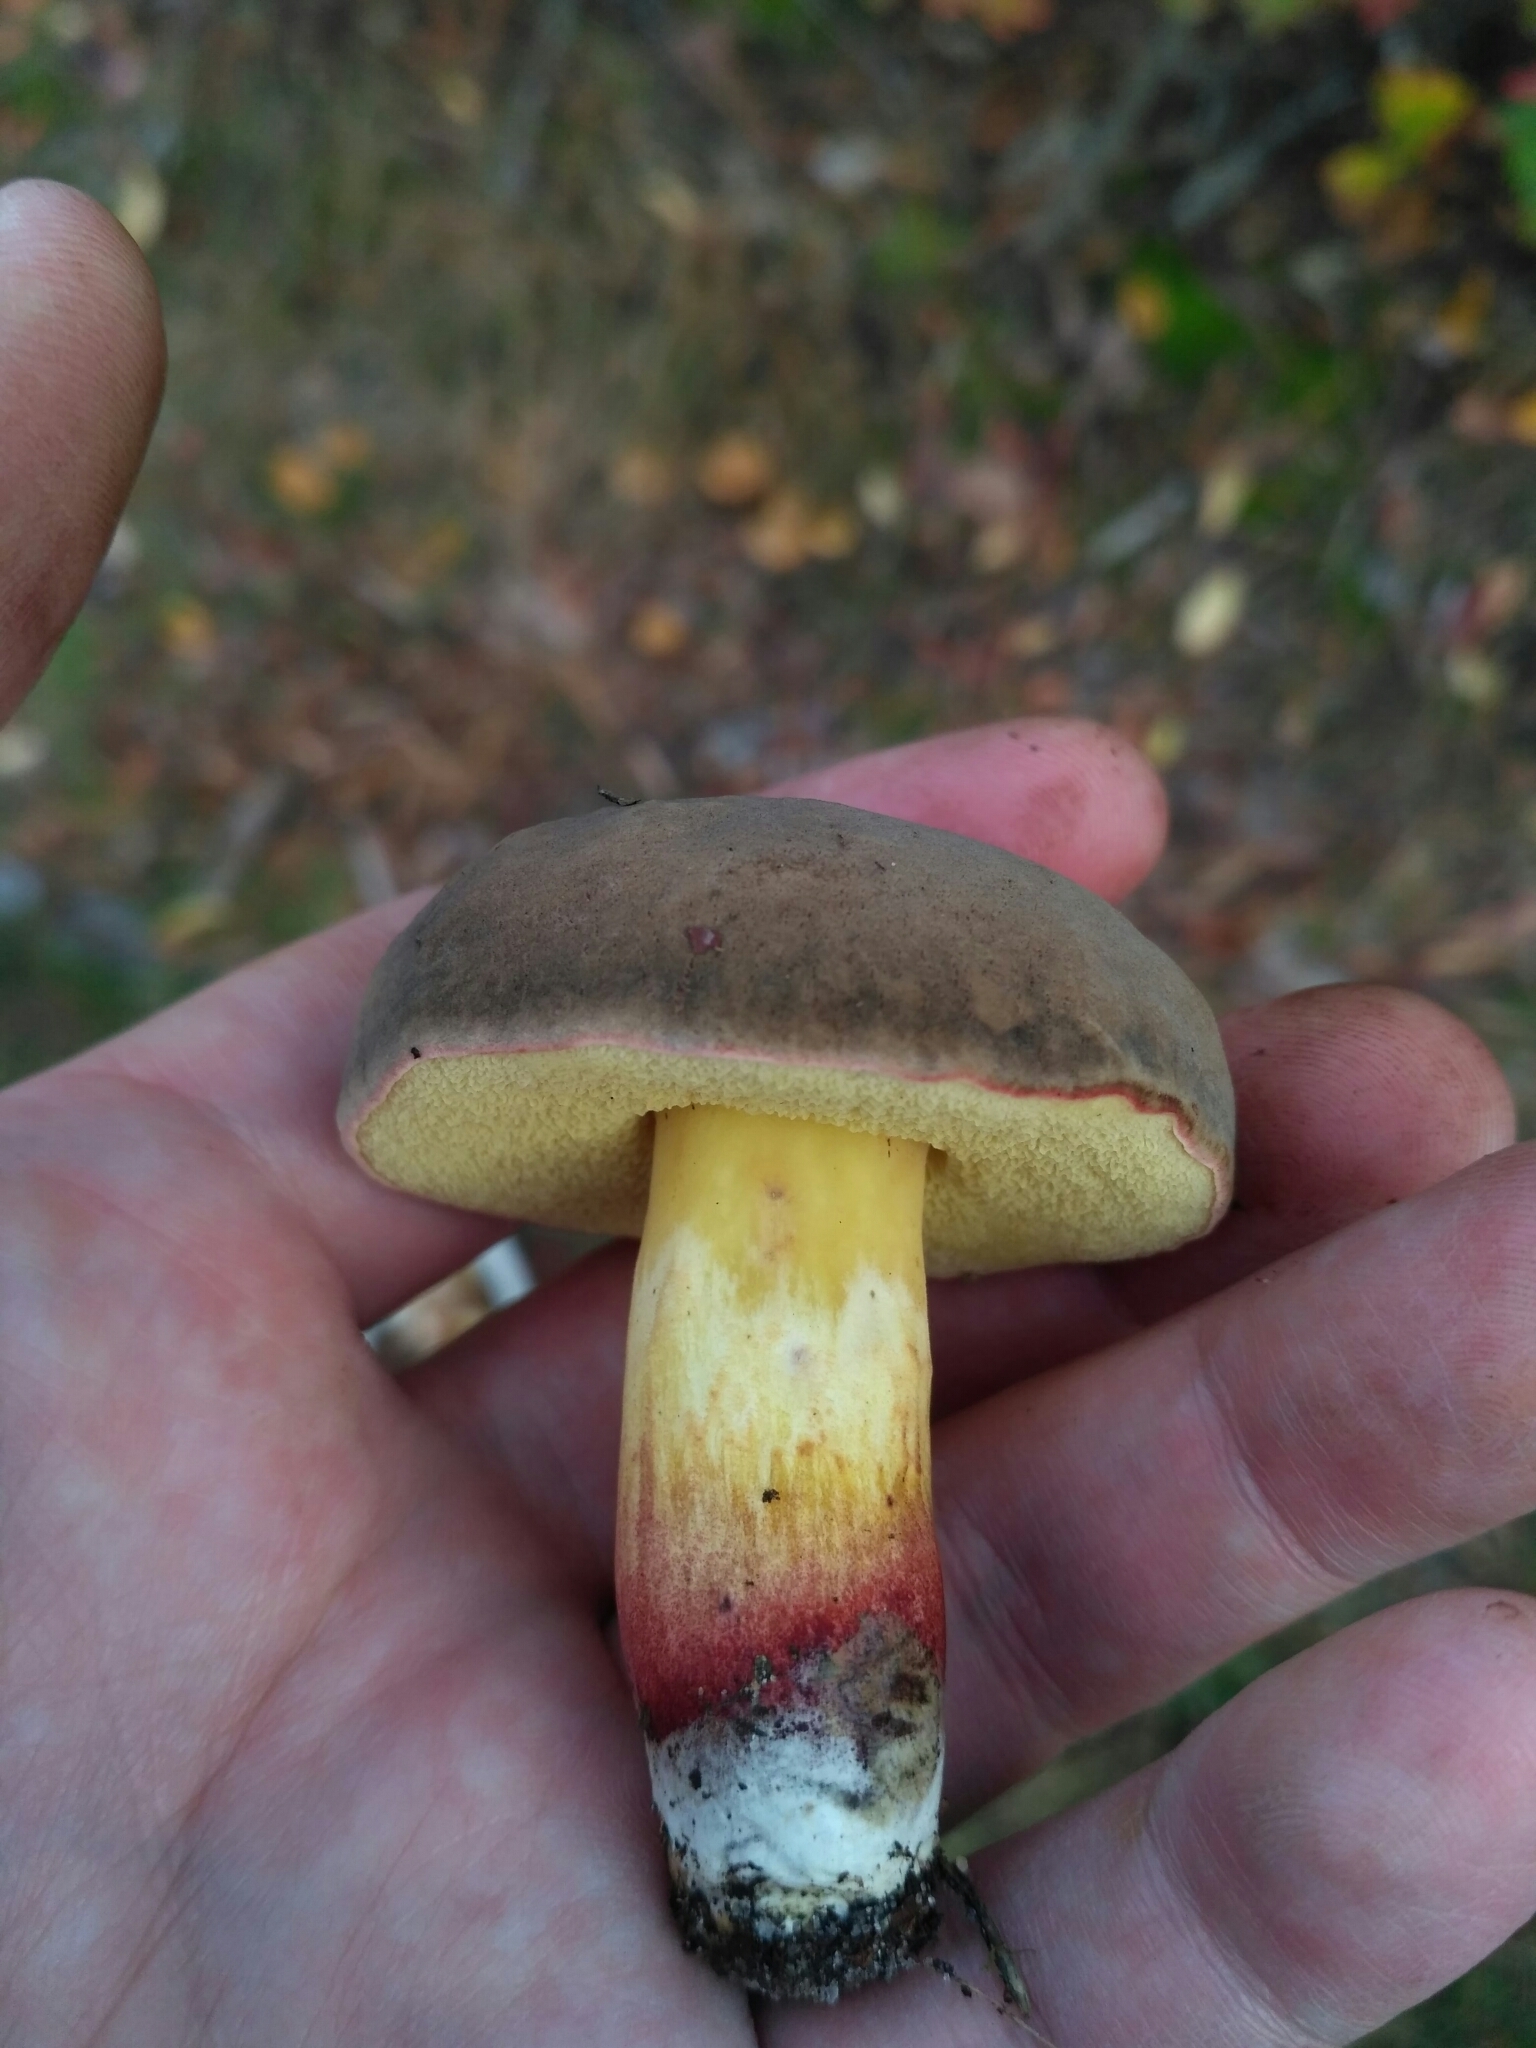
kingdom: Fungi
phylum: Basidiomycota
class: Agaricomycetes
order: Boletales
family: Boletaceae
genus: Xerocomus
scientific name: Xerocomus subtomentosus
